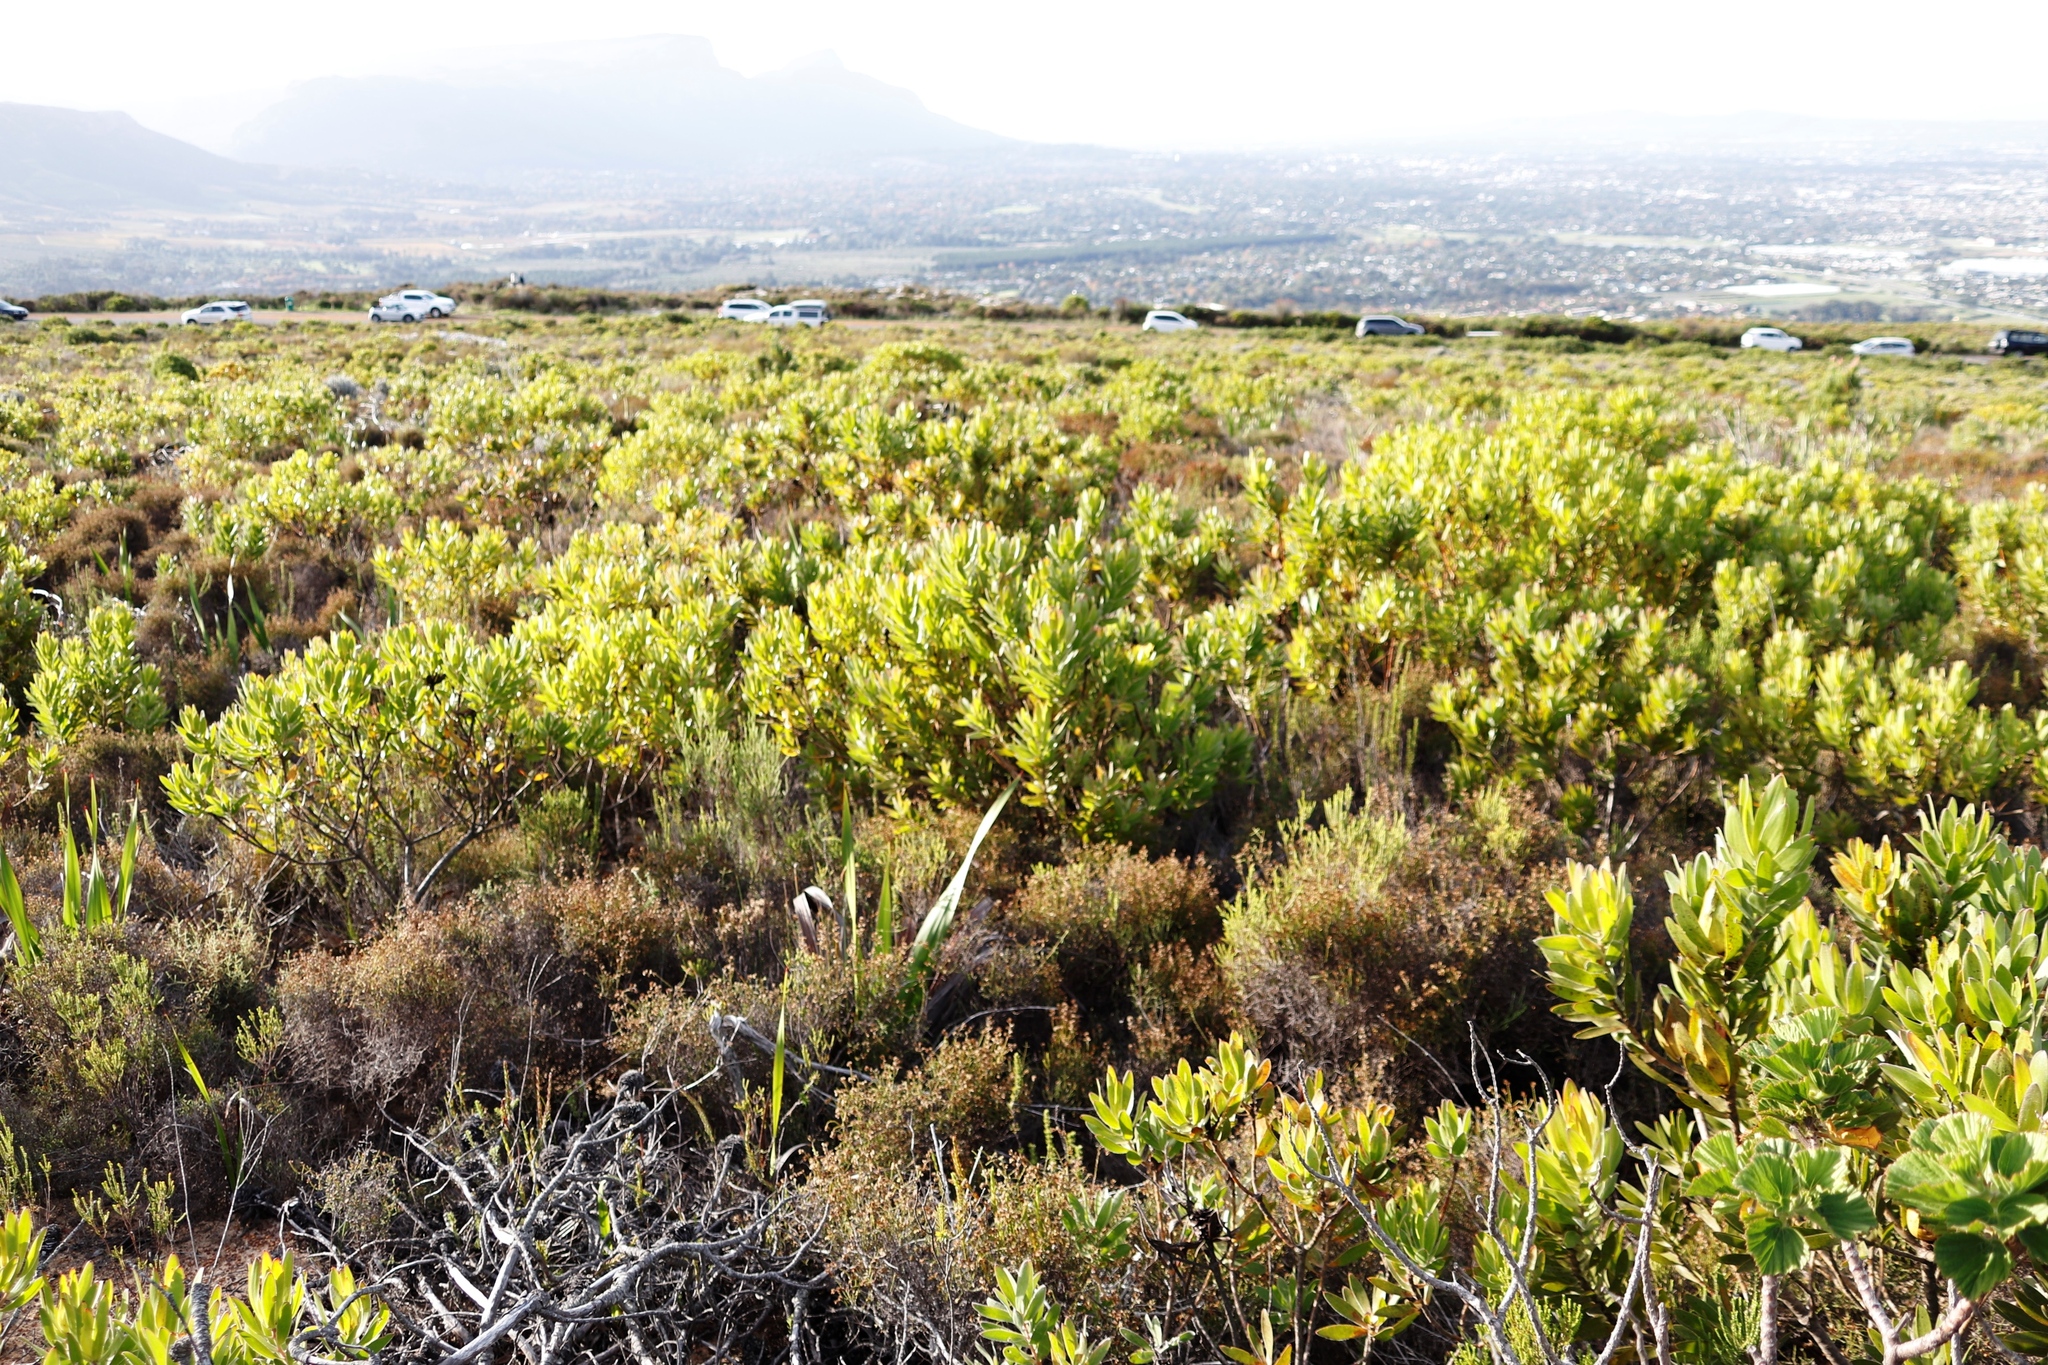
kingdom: Plantae
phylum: Tracheophyta
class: Magnoliopsida
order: Proteales
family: Proteaceae
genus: Leucadendron
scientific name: Leucadendron laureolum
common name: Golden sunshinebush
